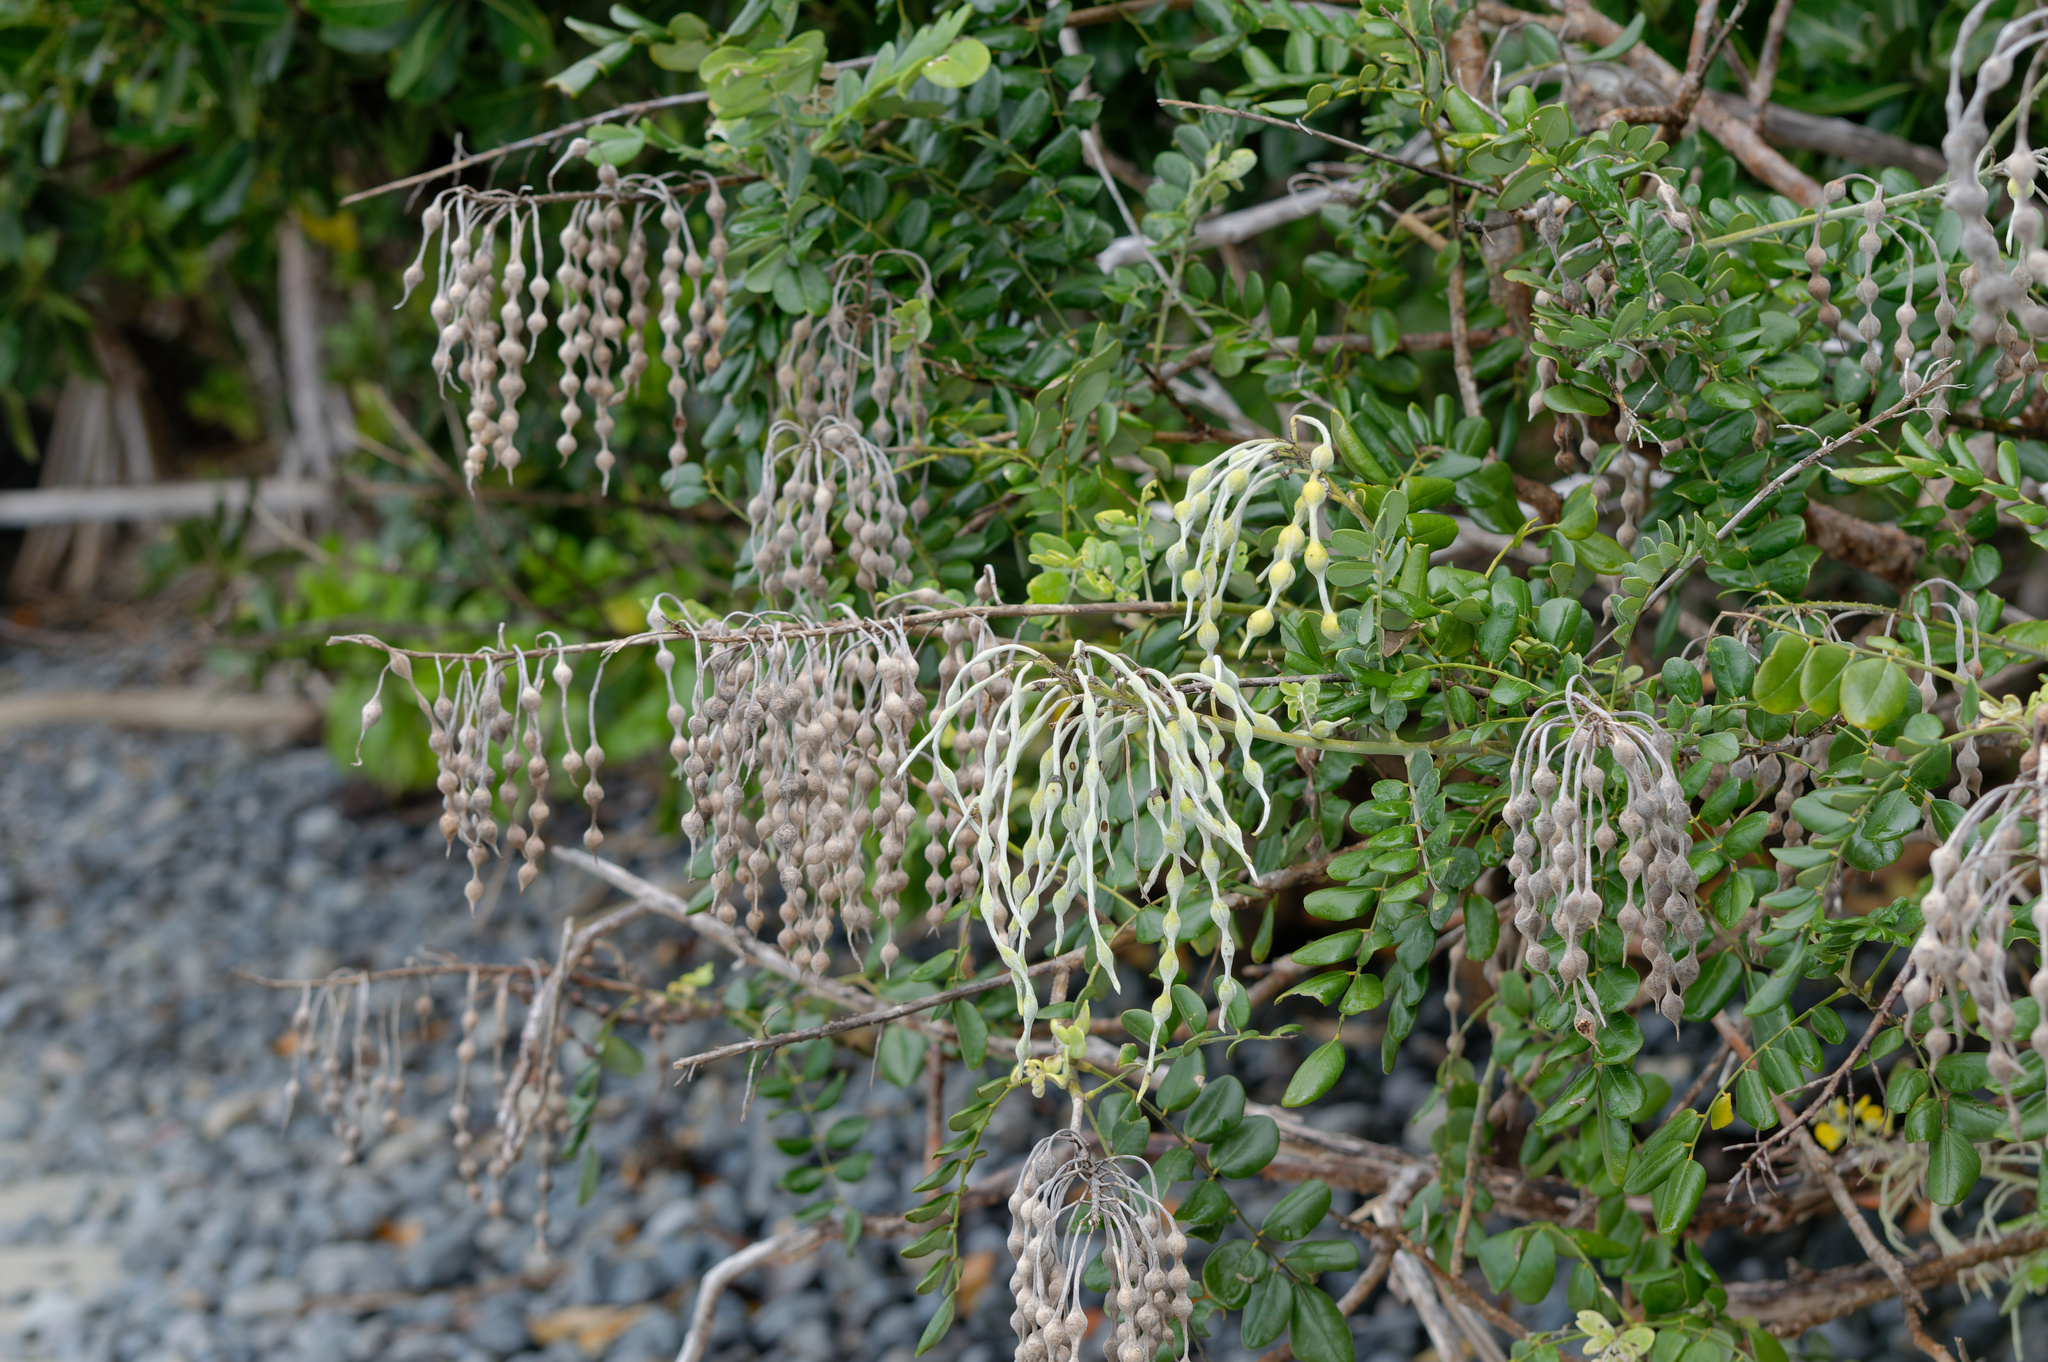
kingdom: Plantae
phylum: Tracheophyta
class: Magnoliopsida
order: Fabales
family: Fabaceae
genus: Sophora
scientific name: Sophora tomentosa
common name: Yellow necklacepod
